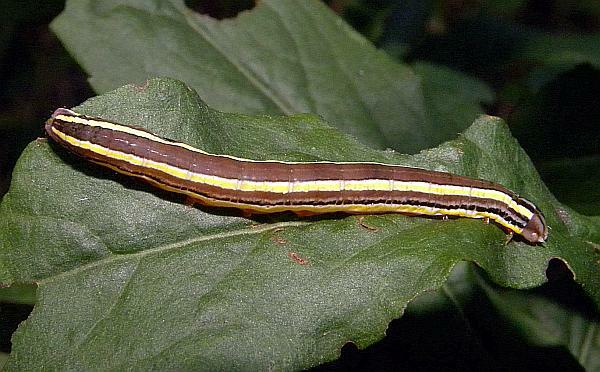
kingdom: Animalia
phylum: Arthropoda
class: Insecta
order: Lepidoptera
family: Noctuidae
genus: Trichordestra
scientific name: Trichordestra legitima
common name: Striped garden caterpillar
